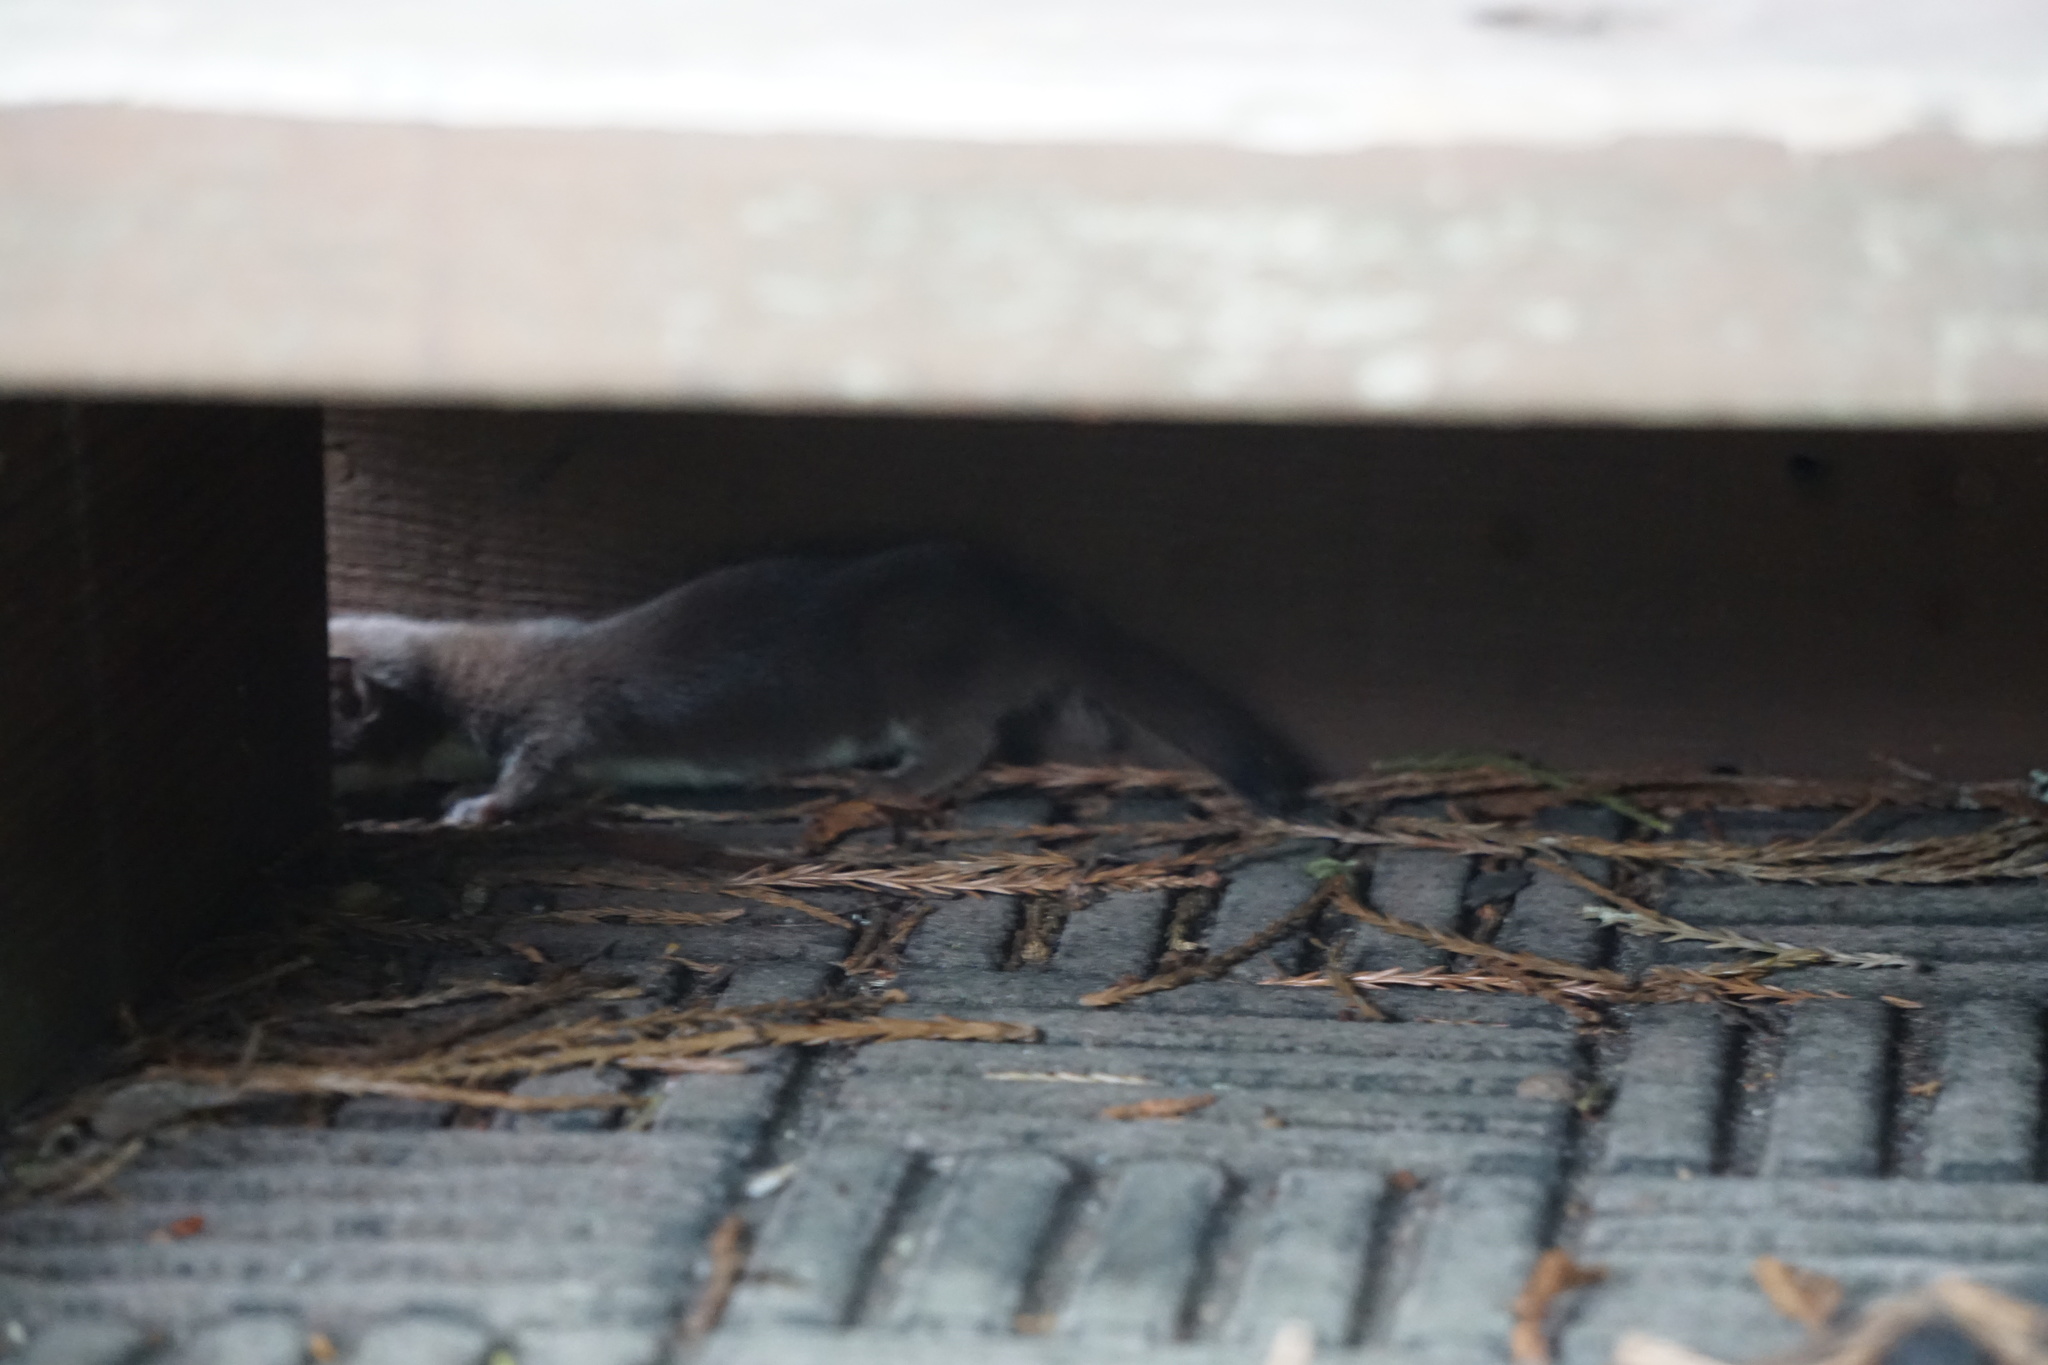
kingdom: Animalia
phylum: Chordata
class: Mammalia
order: Carnivora
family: Mustelidae
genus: Mustela
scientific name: Mustela erminea
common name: Stoat
